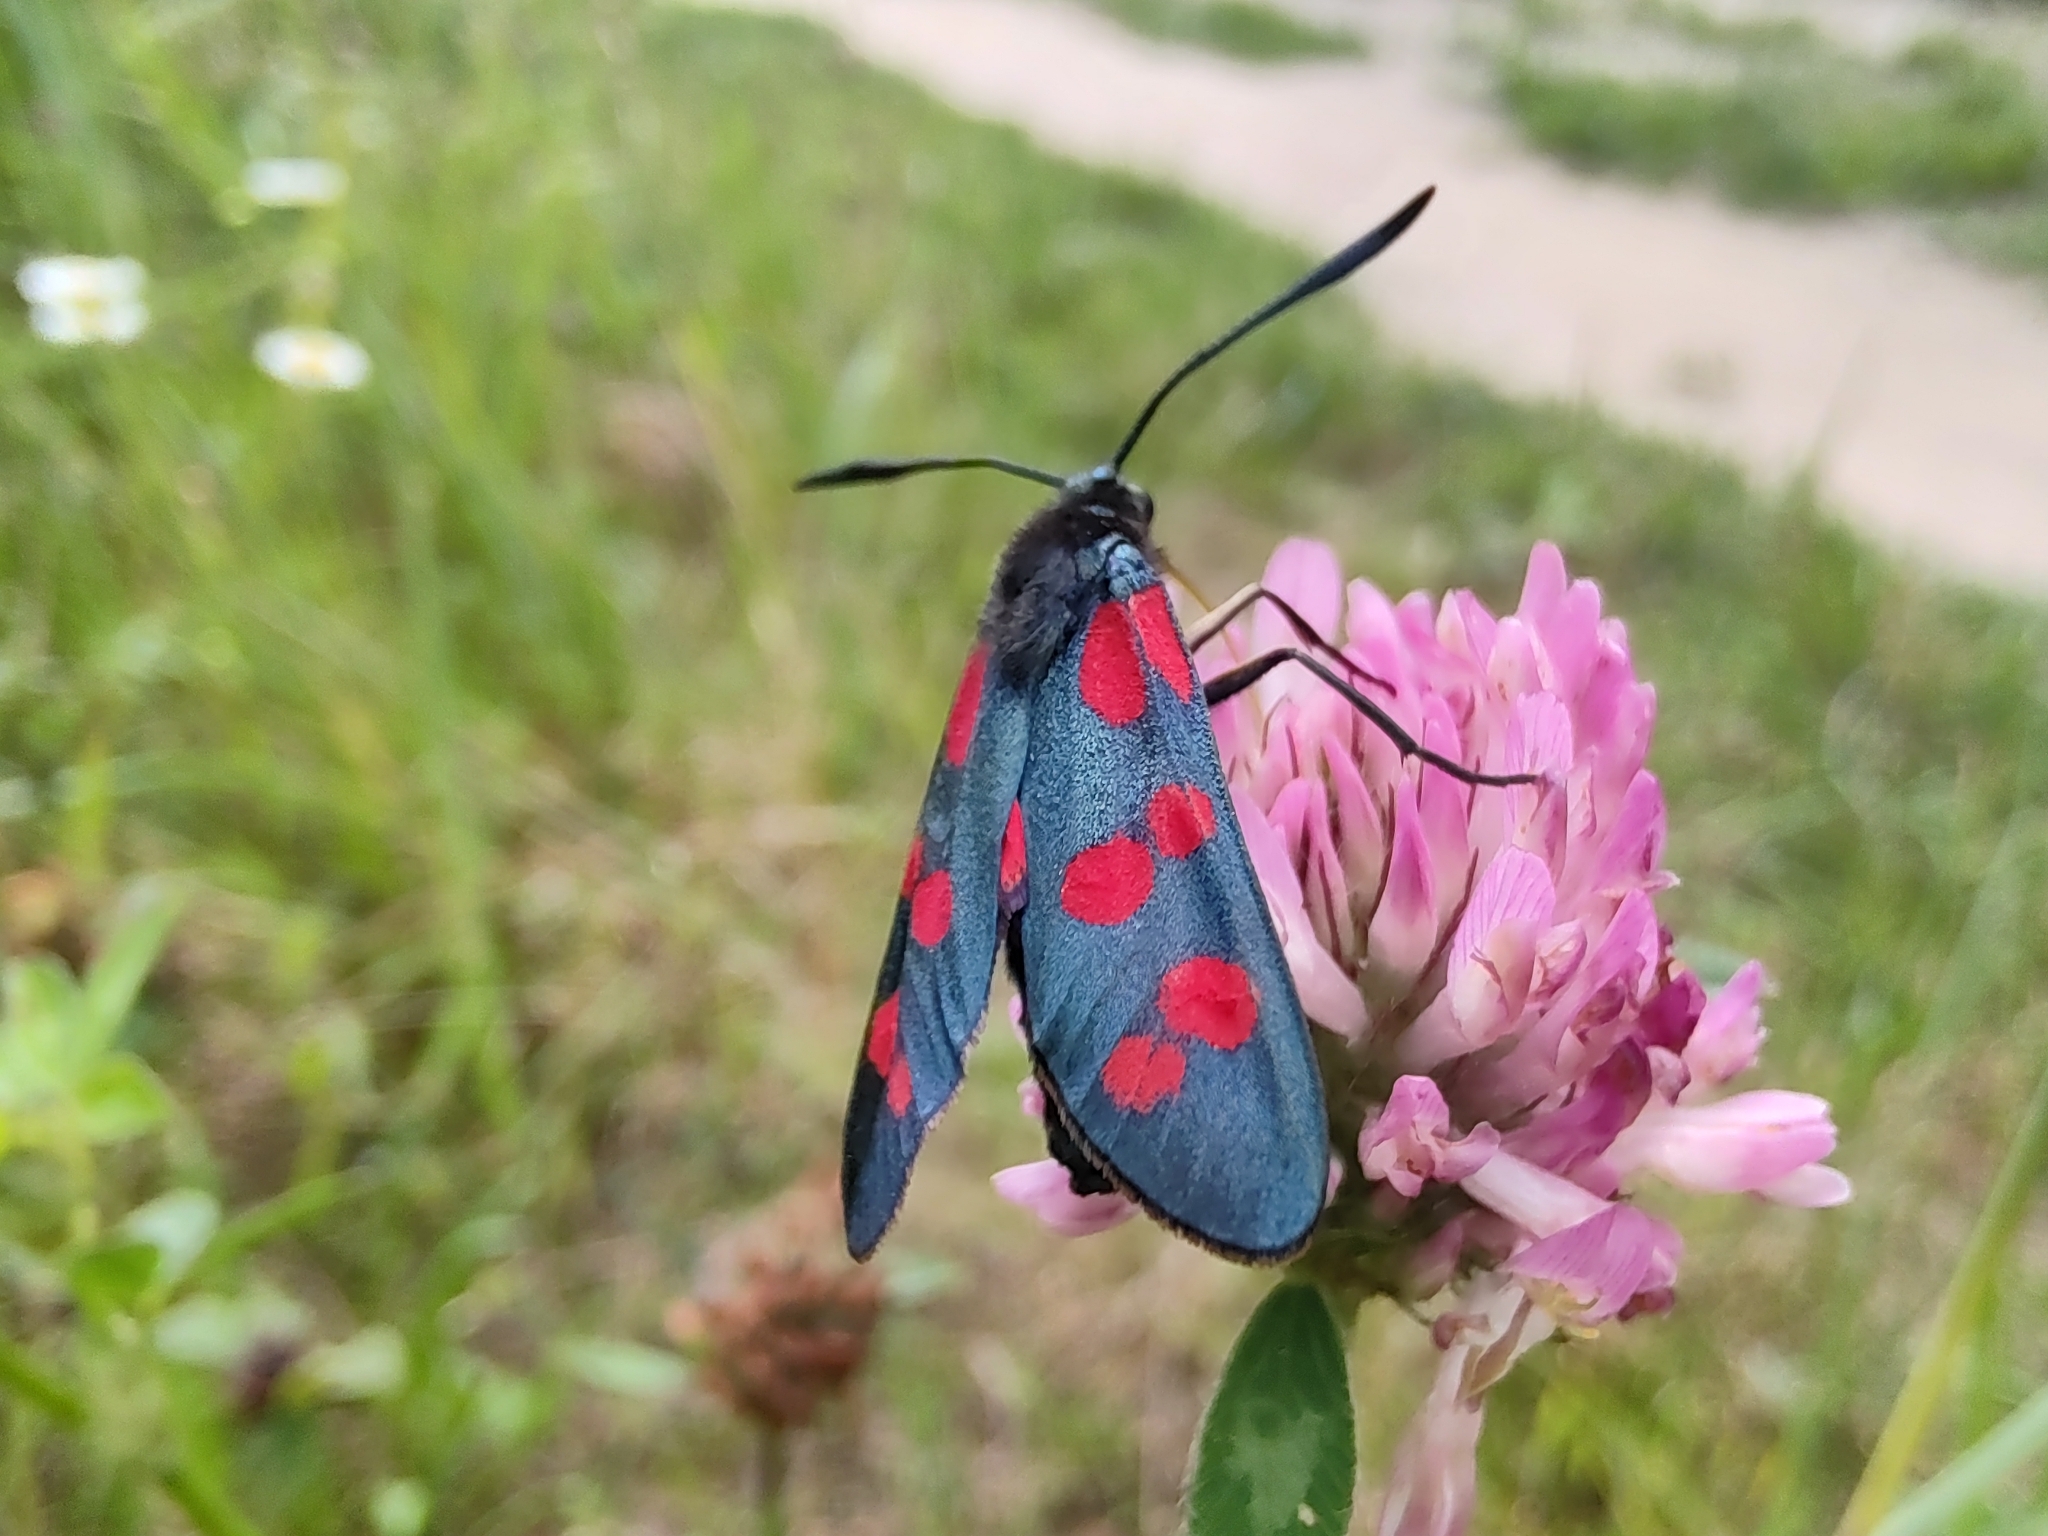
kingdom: Animalia
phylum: Arthropoda
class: Insecta
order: Lepidoptera
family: Zygaenidae
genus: Zygaena
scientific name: Zygaena filipendulae
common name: Six-spot burnet
